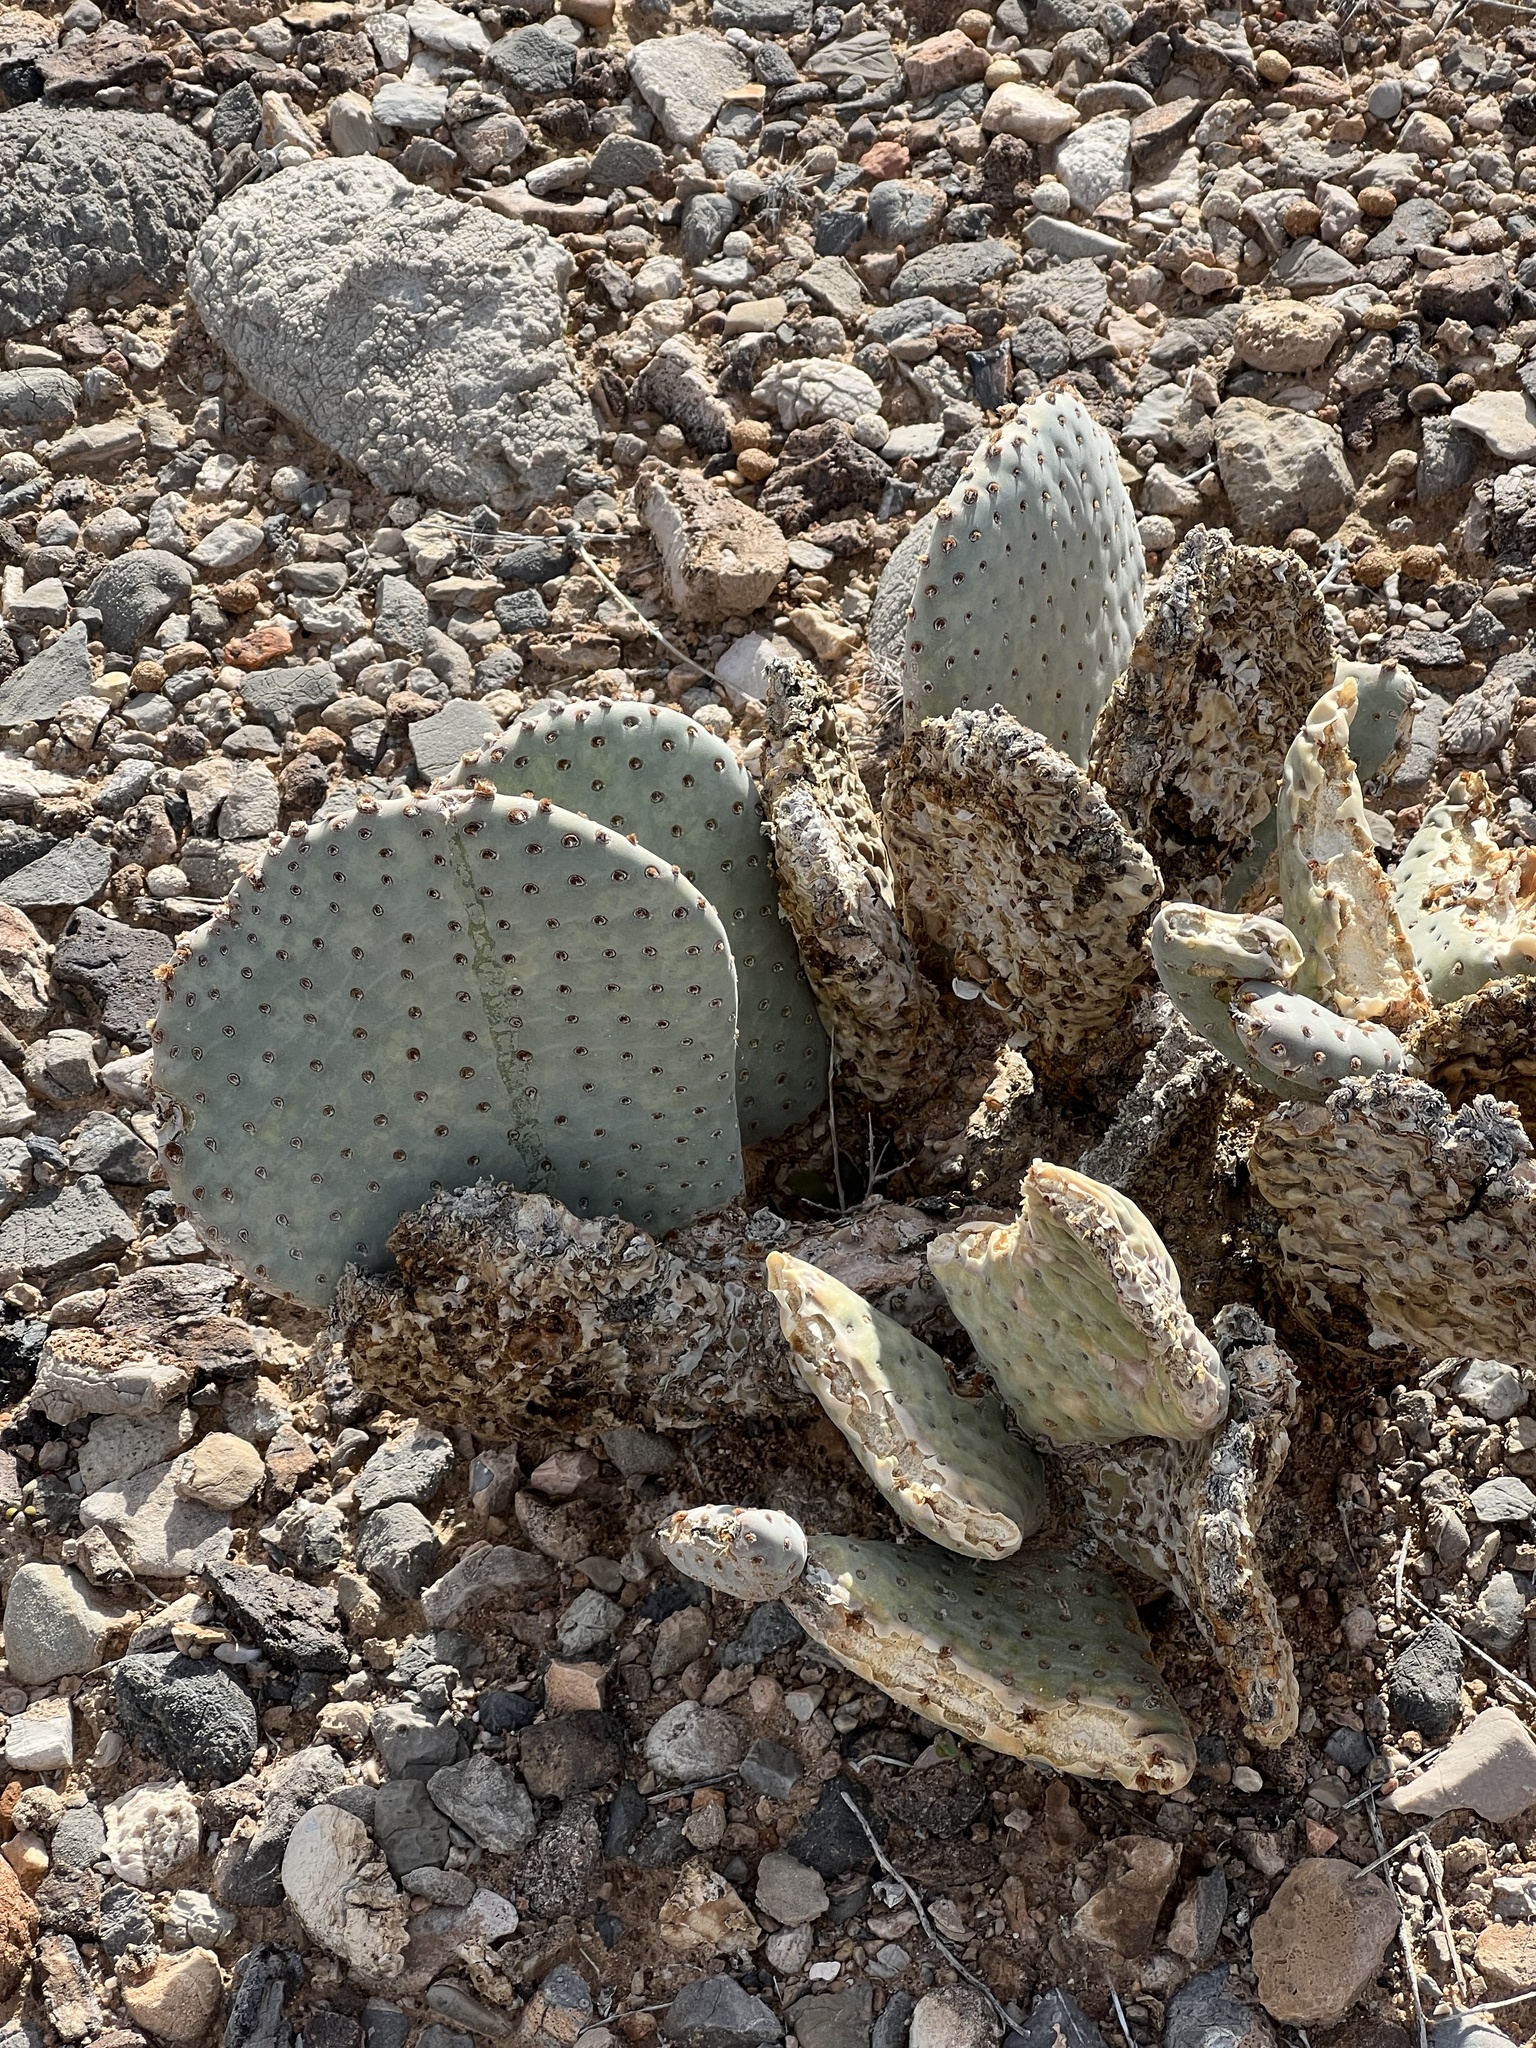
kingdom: Plantae
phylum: Tracheophyta
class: Magnoliopsida
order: Caryophyllales
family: Cactaceae
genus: Opuntia
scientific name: Opuntia basilaris
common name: Beavertail prickly-pear
